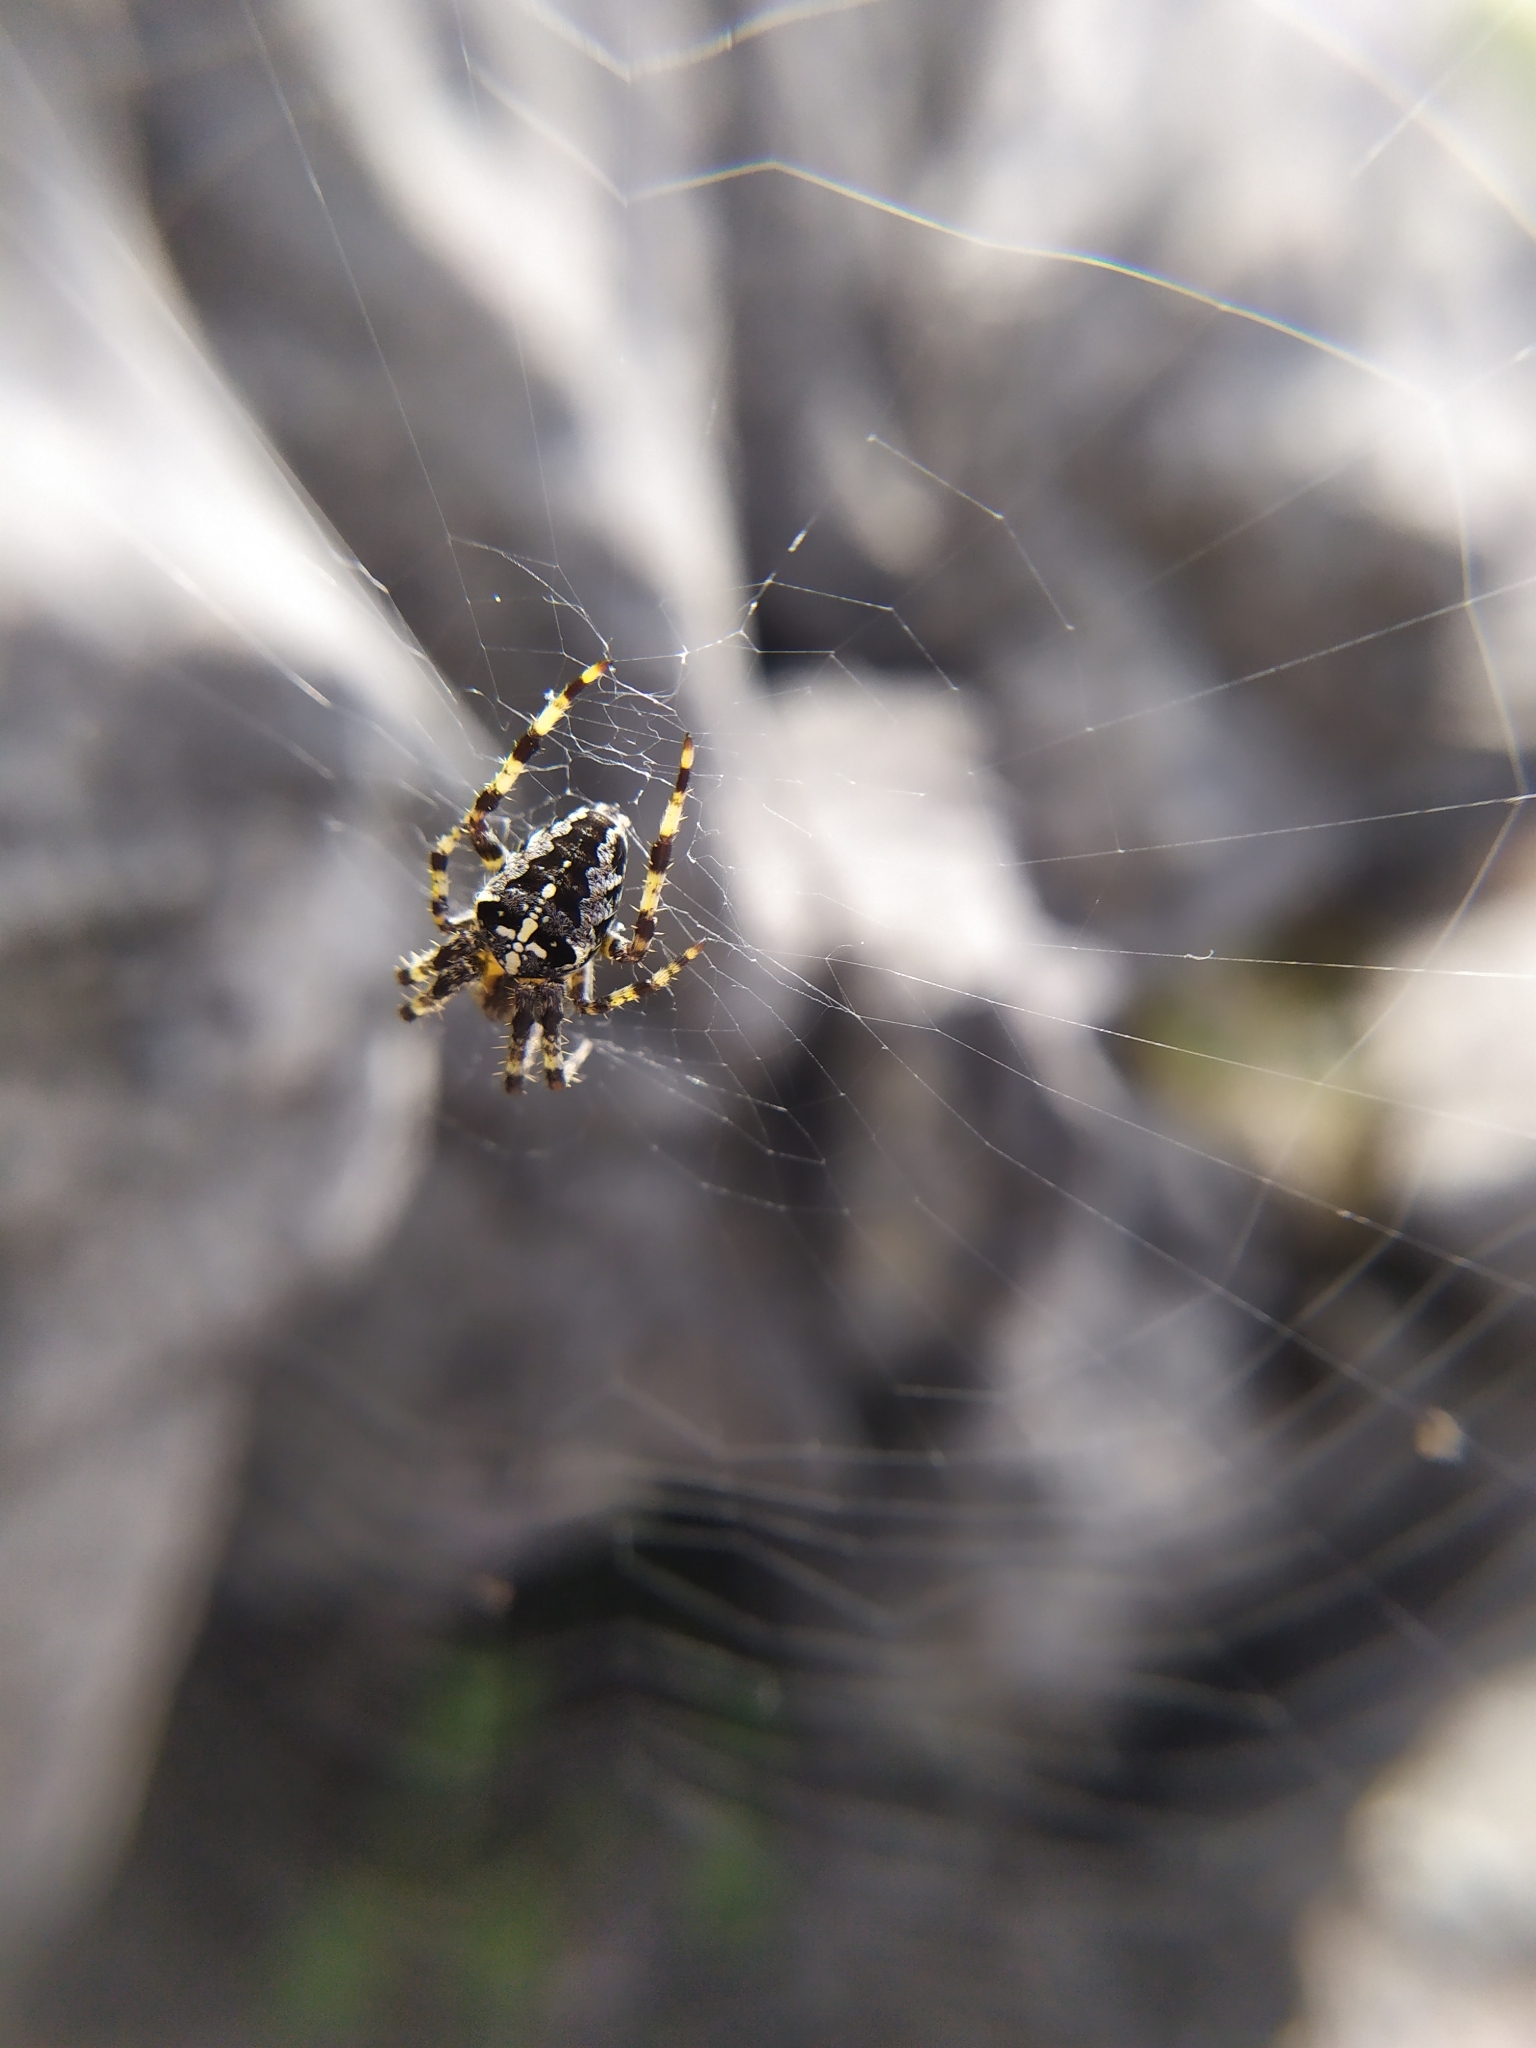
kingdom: Animalia
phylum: Arthropoda
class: Arachnida
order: Araneae
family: Araneidae
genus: Araneus
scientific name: Araneus diadematus
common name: Cross orbweaver
